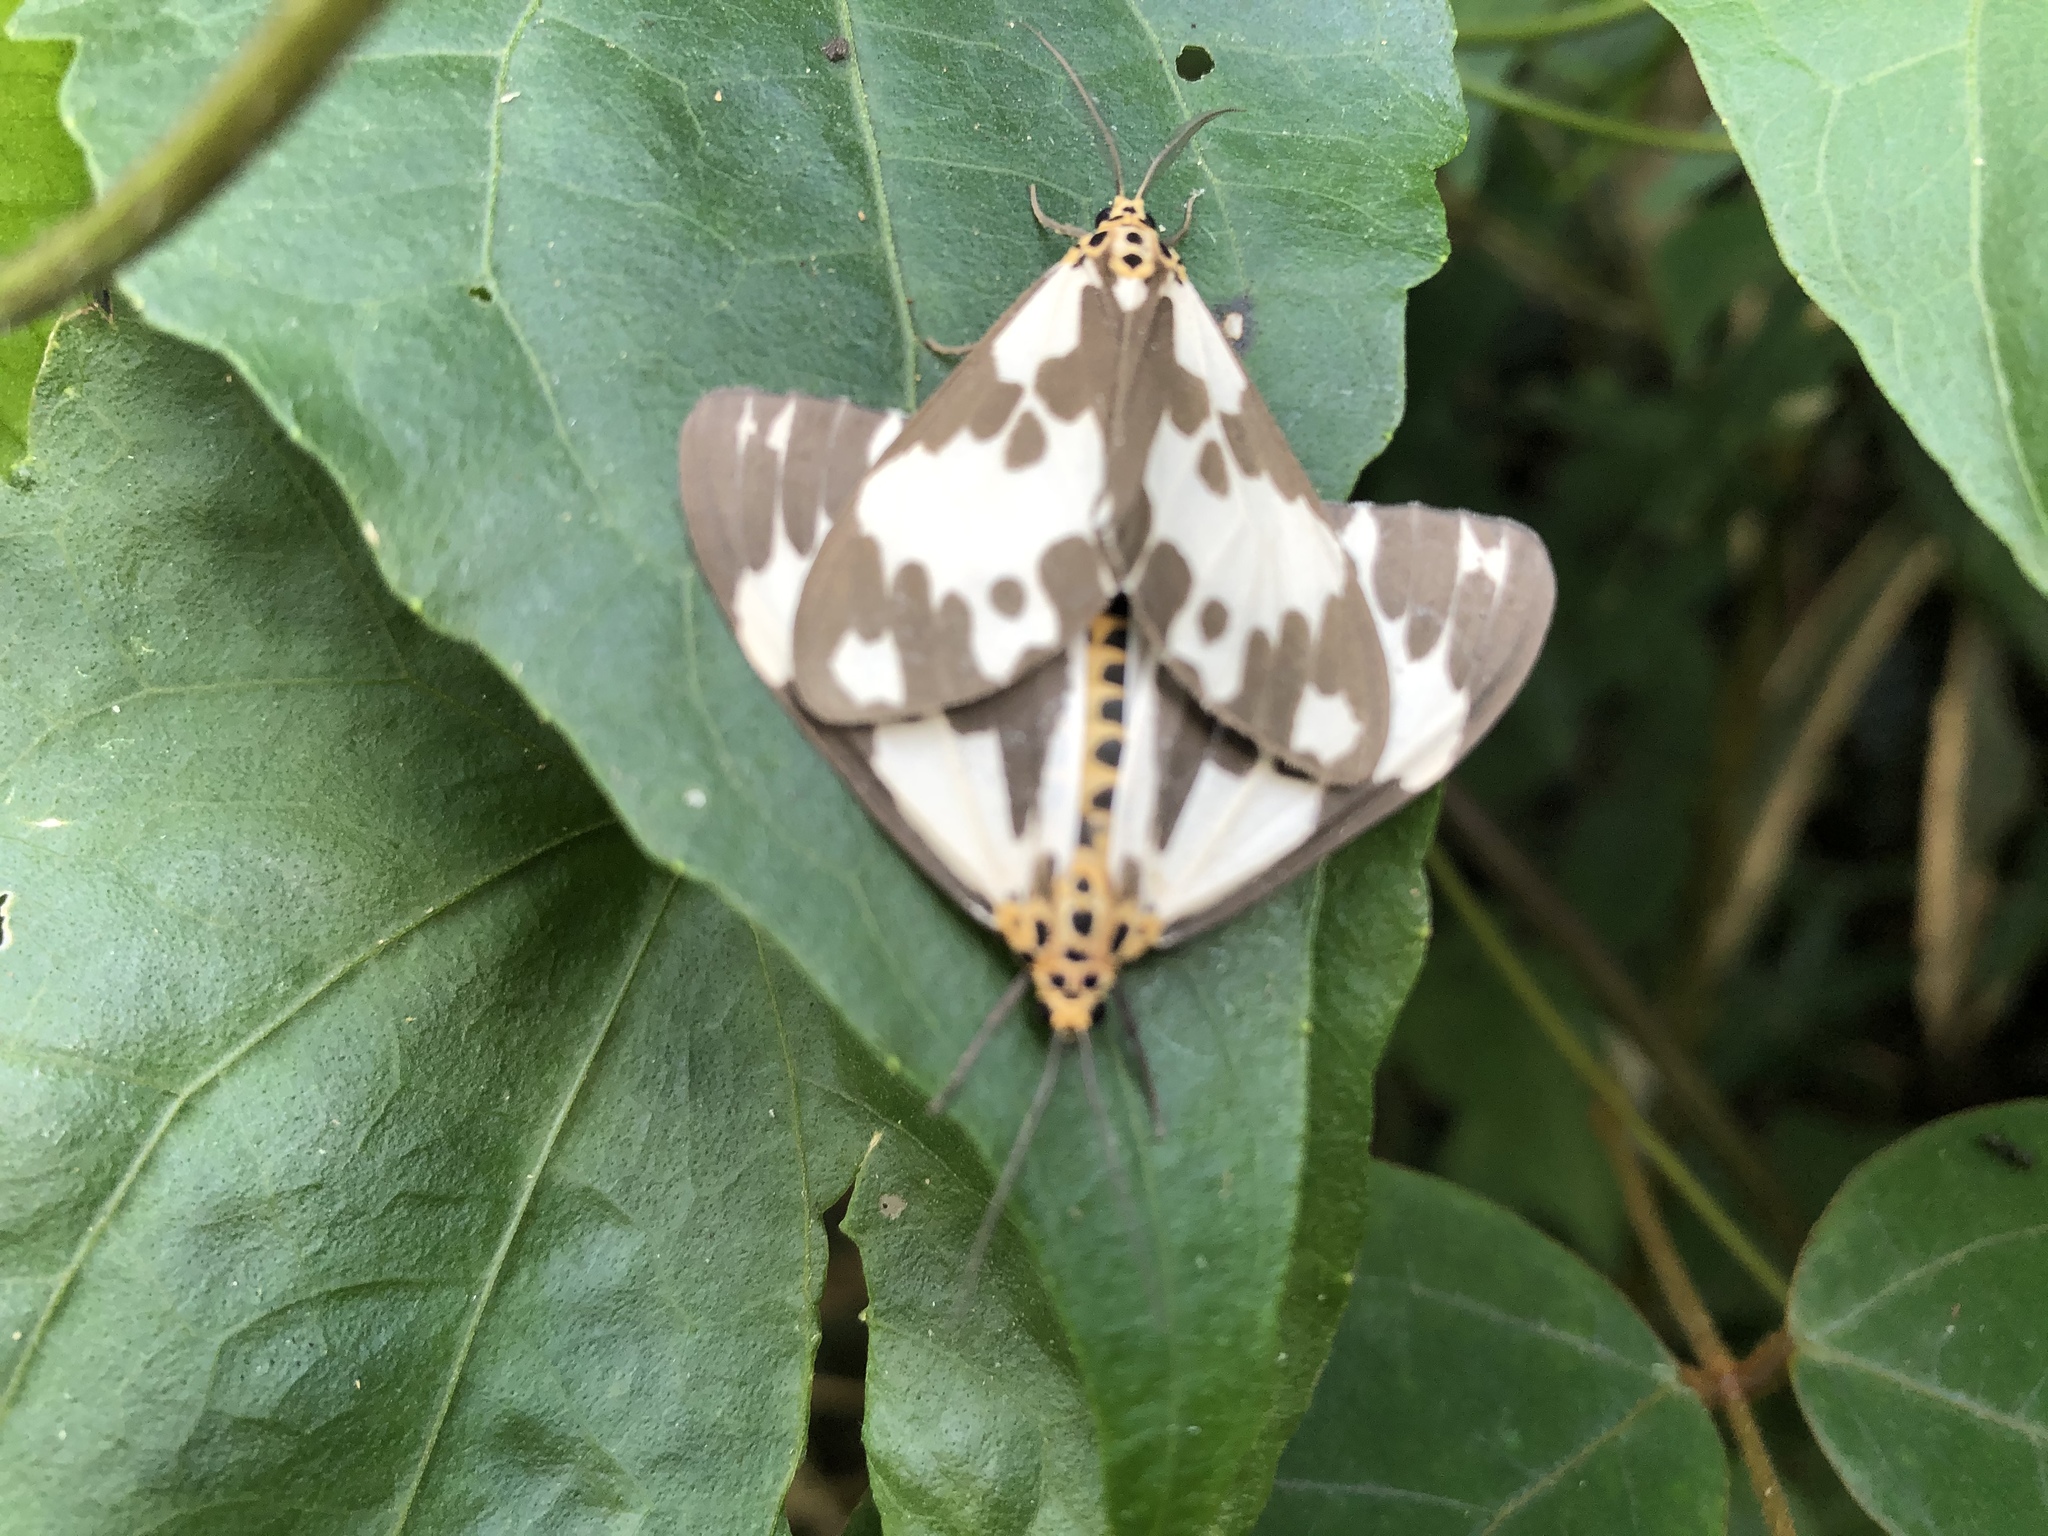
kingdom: Animalia
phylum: Arthropoda
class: Insecta
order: Lepidoptera
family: Erebidae
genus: Nyctemera
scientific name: Nyctemera carissima
